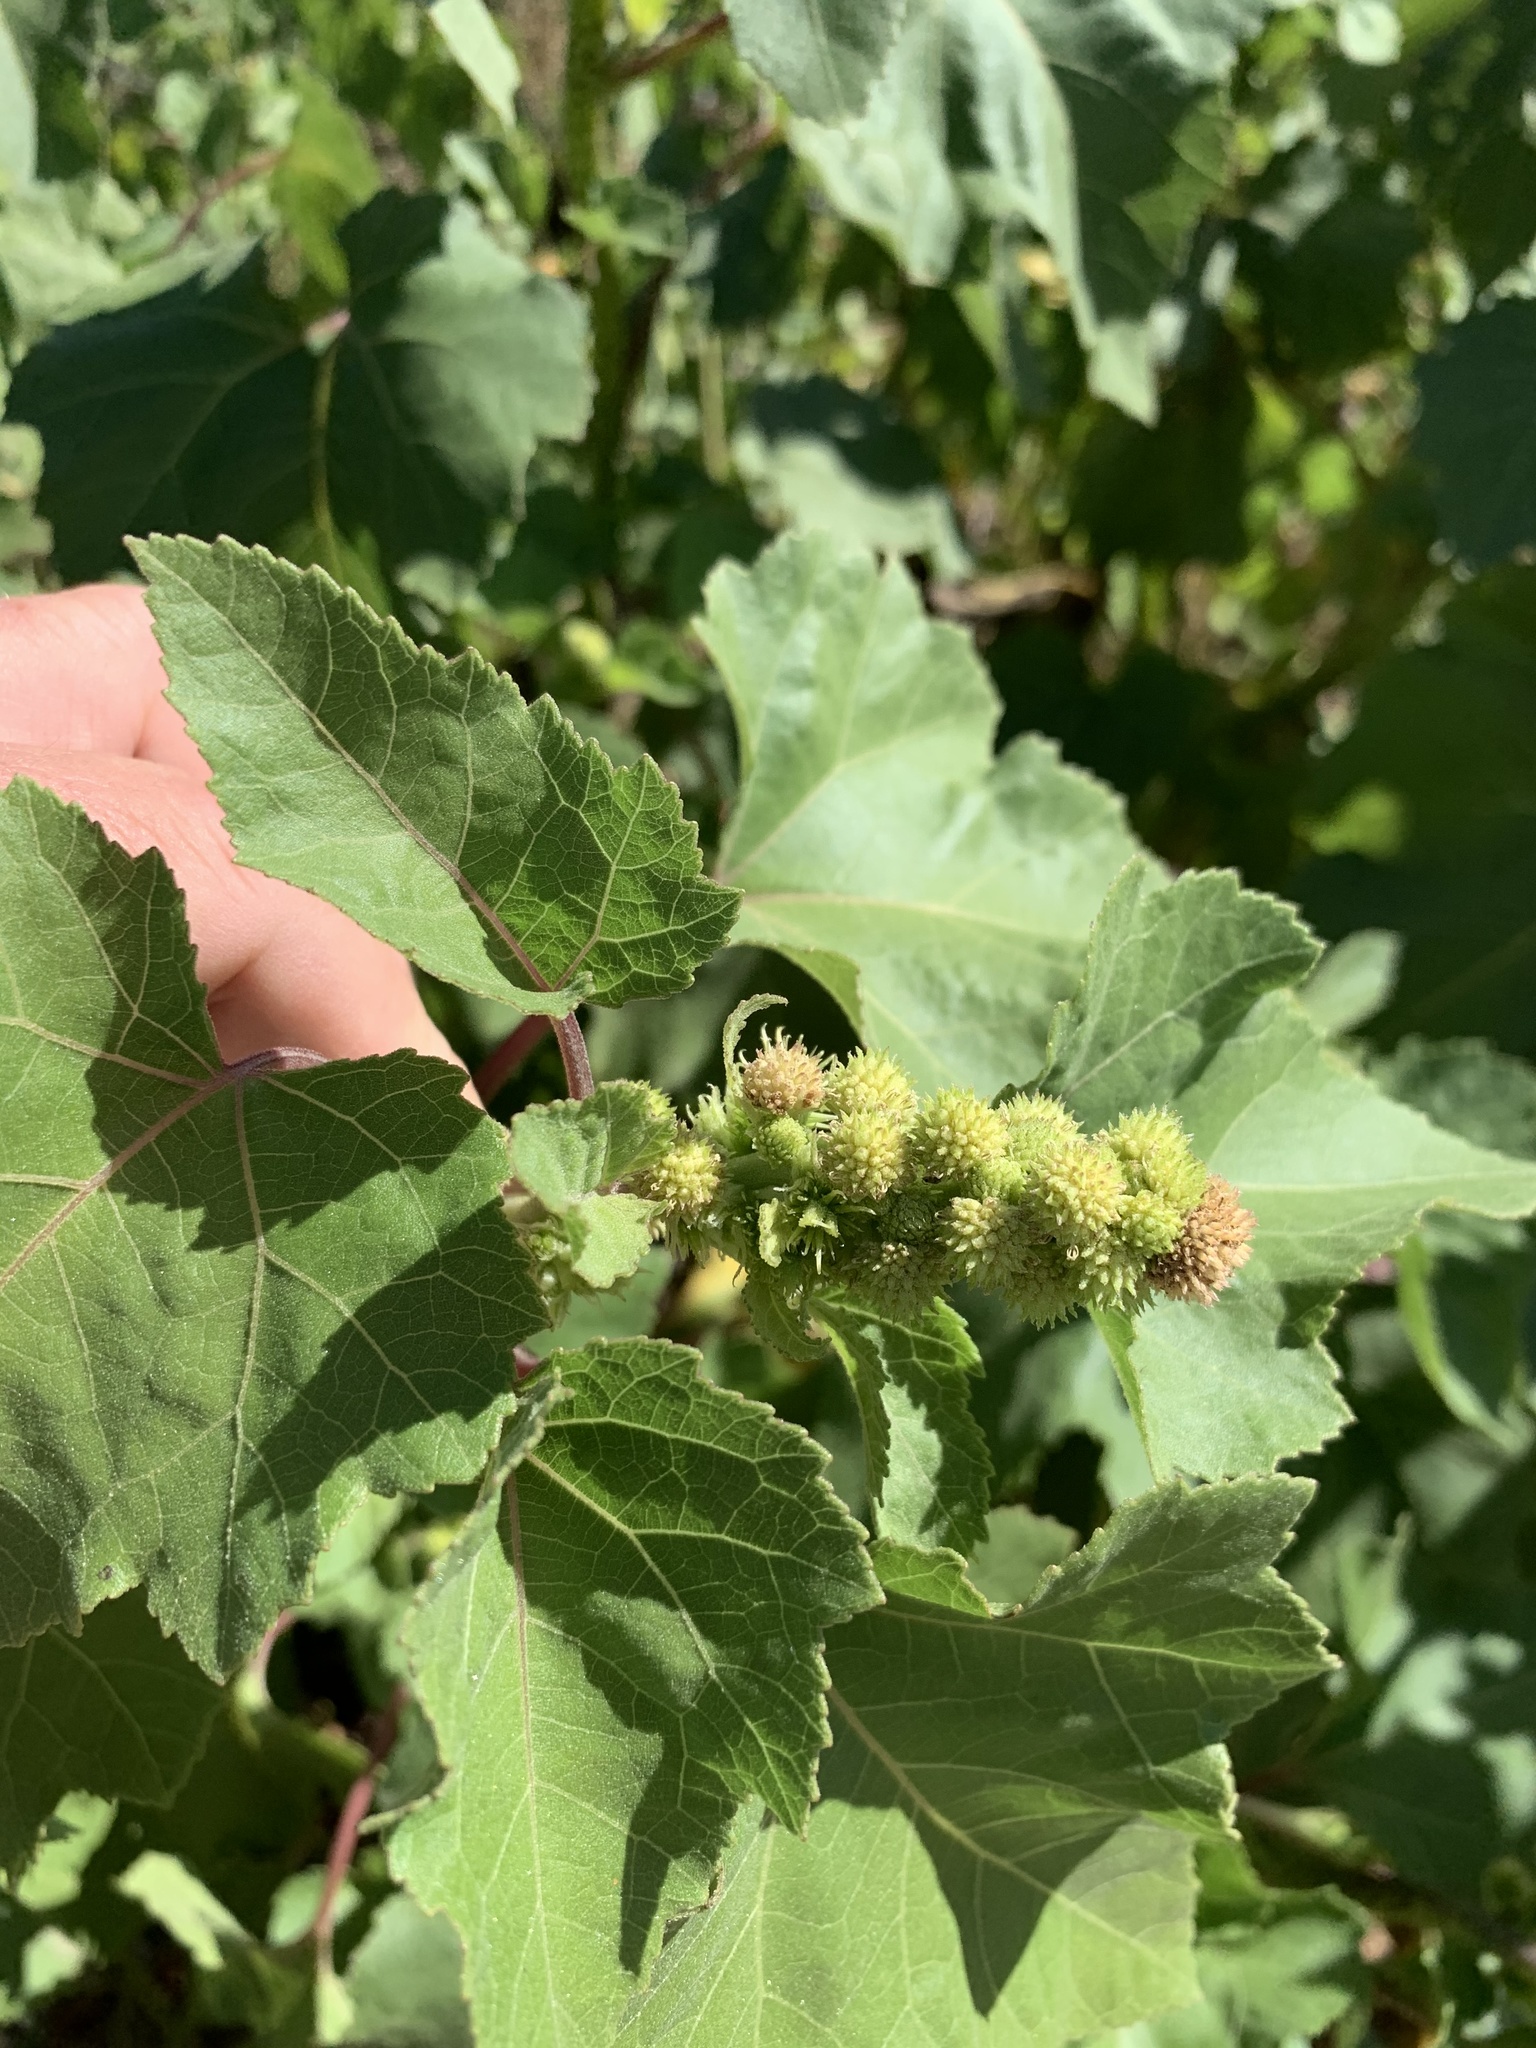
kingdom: Plantae
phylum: Tracheophyta
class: Magnoliopsida
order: Asterales
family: Asteraceae
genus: Xanthium
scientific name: Xanthium strumarium
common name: Rough cocklebur
